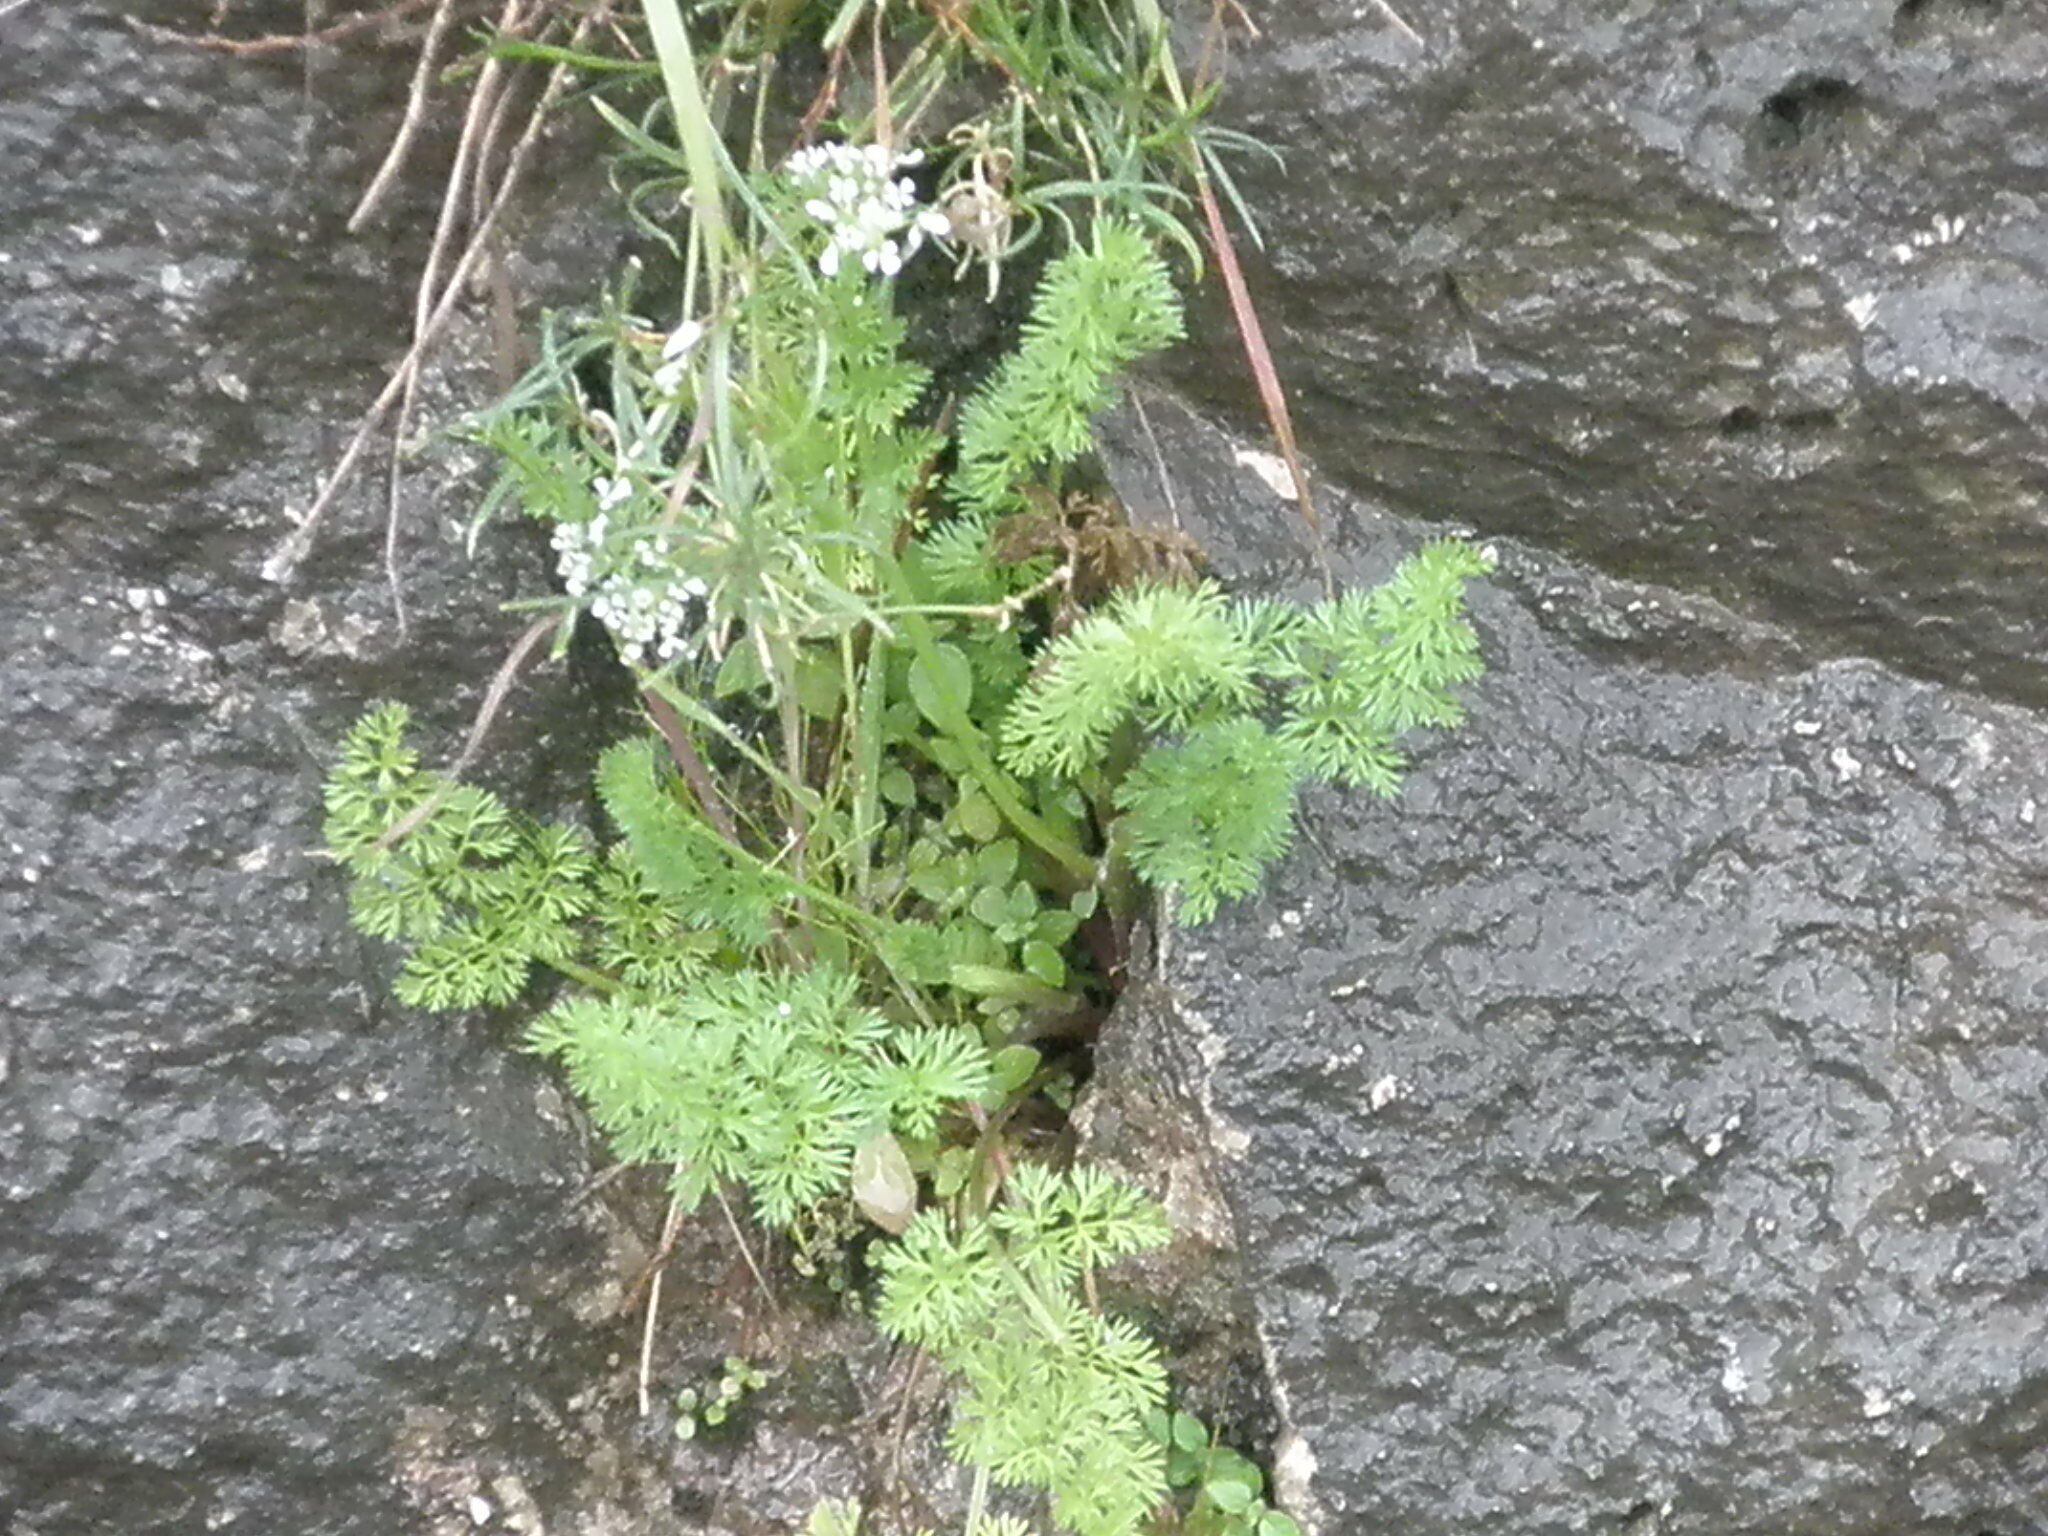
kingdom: Plantae
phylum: Tracheophyta
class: Magnoliopsida
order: Apiales
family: Apiaceae
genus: Scandix
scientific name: Scandix pecten-veneris
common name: Shepherd's-needle
